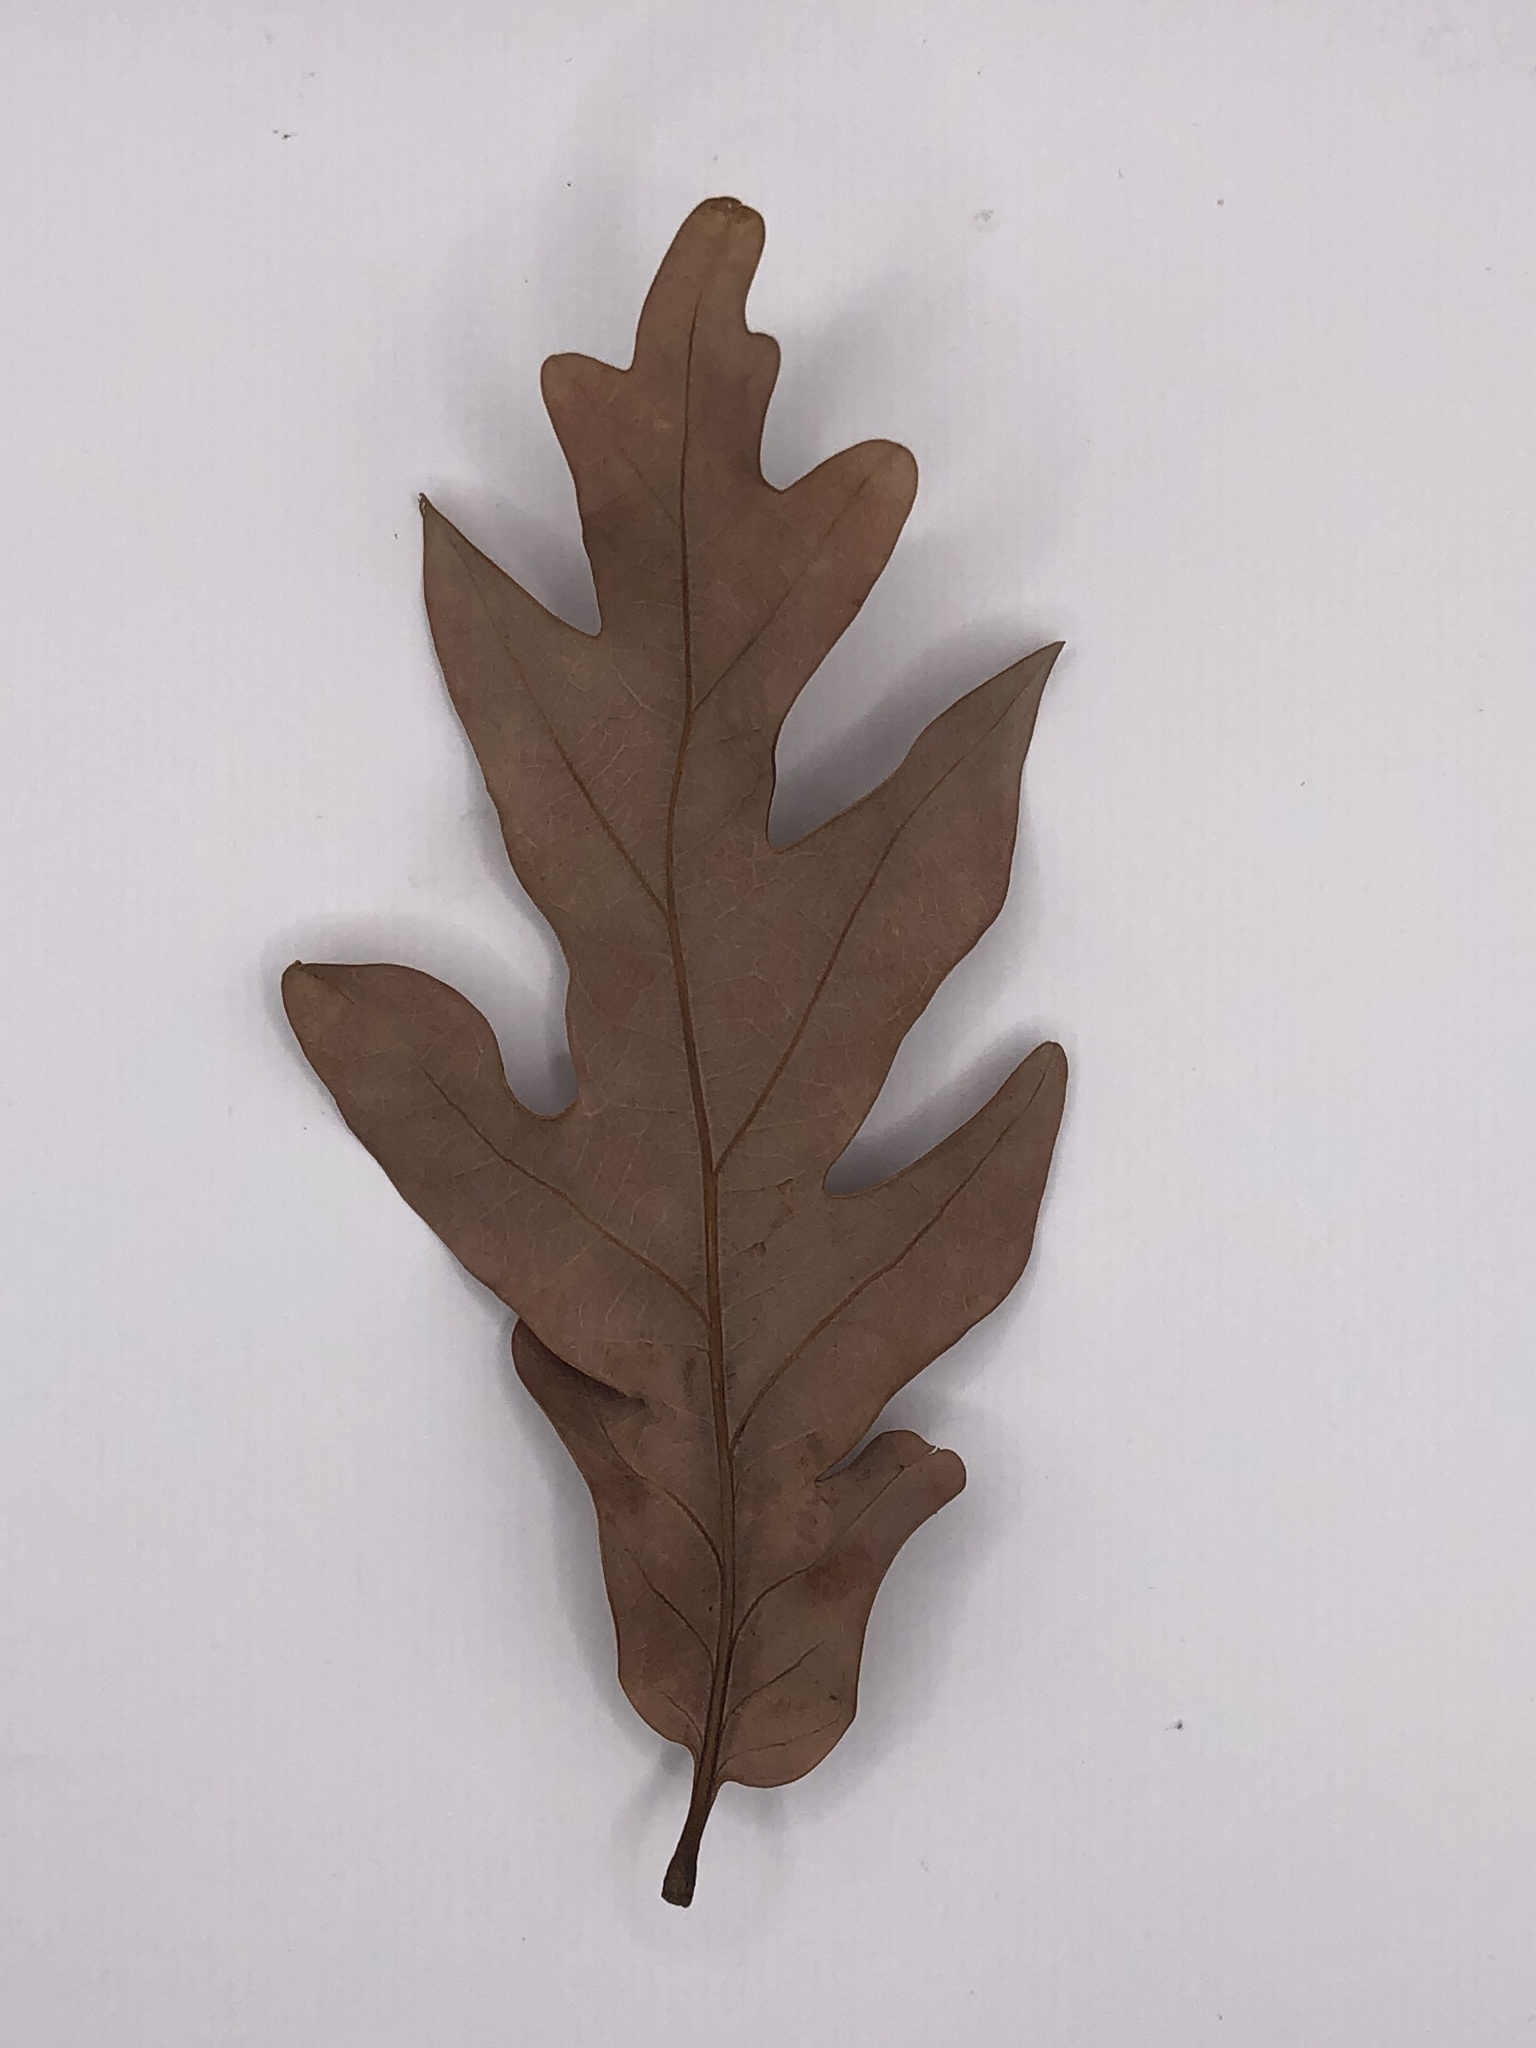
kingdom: Plantae
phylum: Tracheophyta
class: Magnoliopsida
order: Fagales
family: Fagaceae
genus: Quercus
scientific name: Quercus alba
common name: White oak
